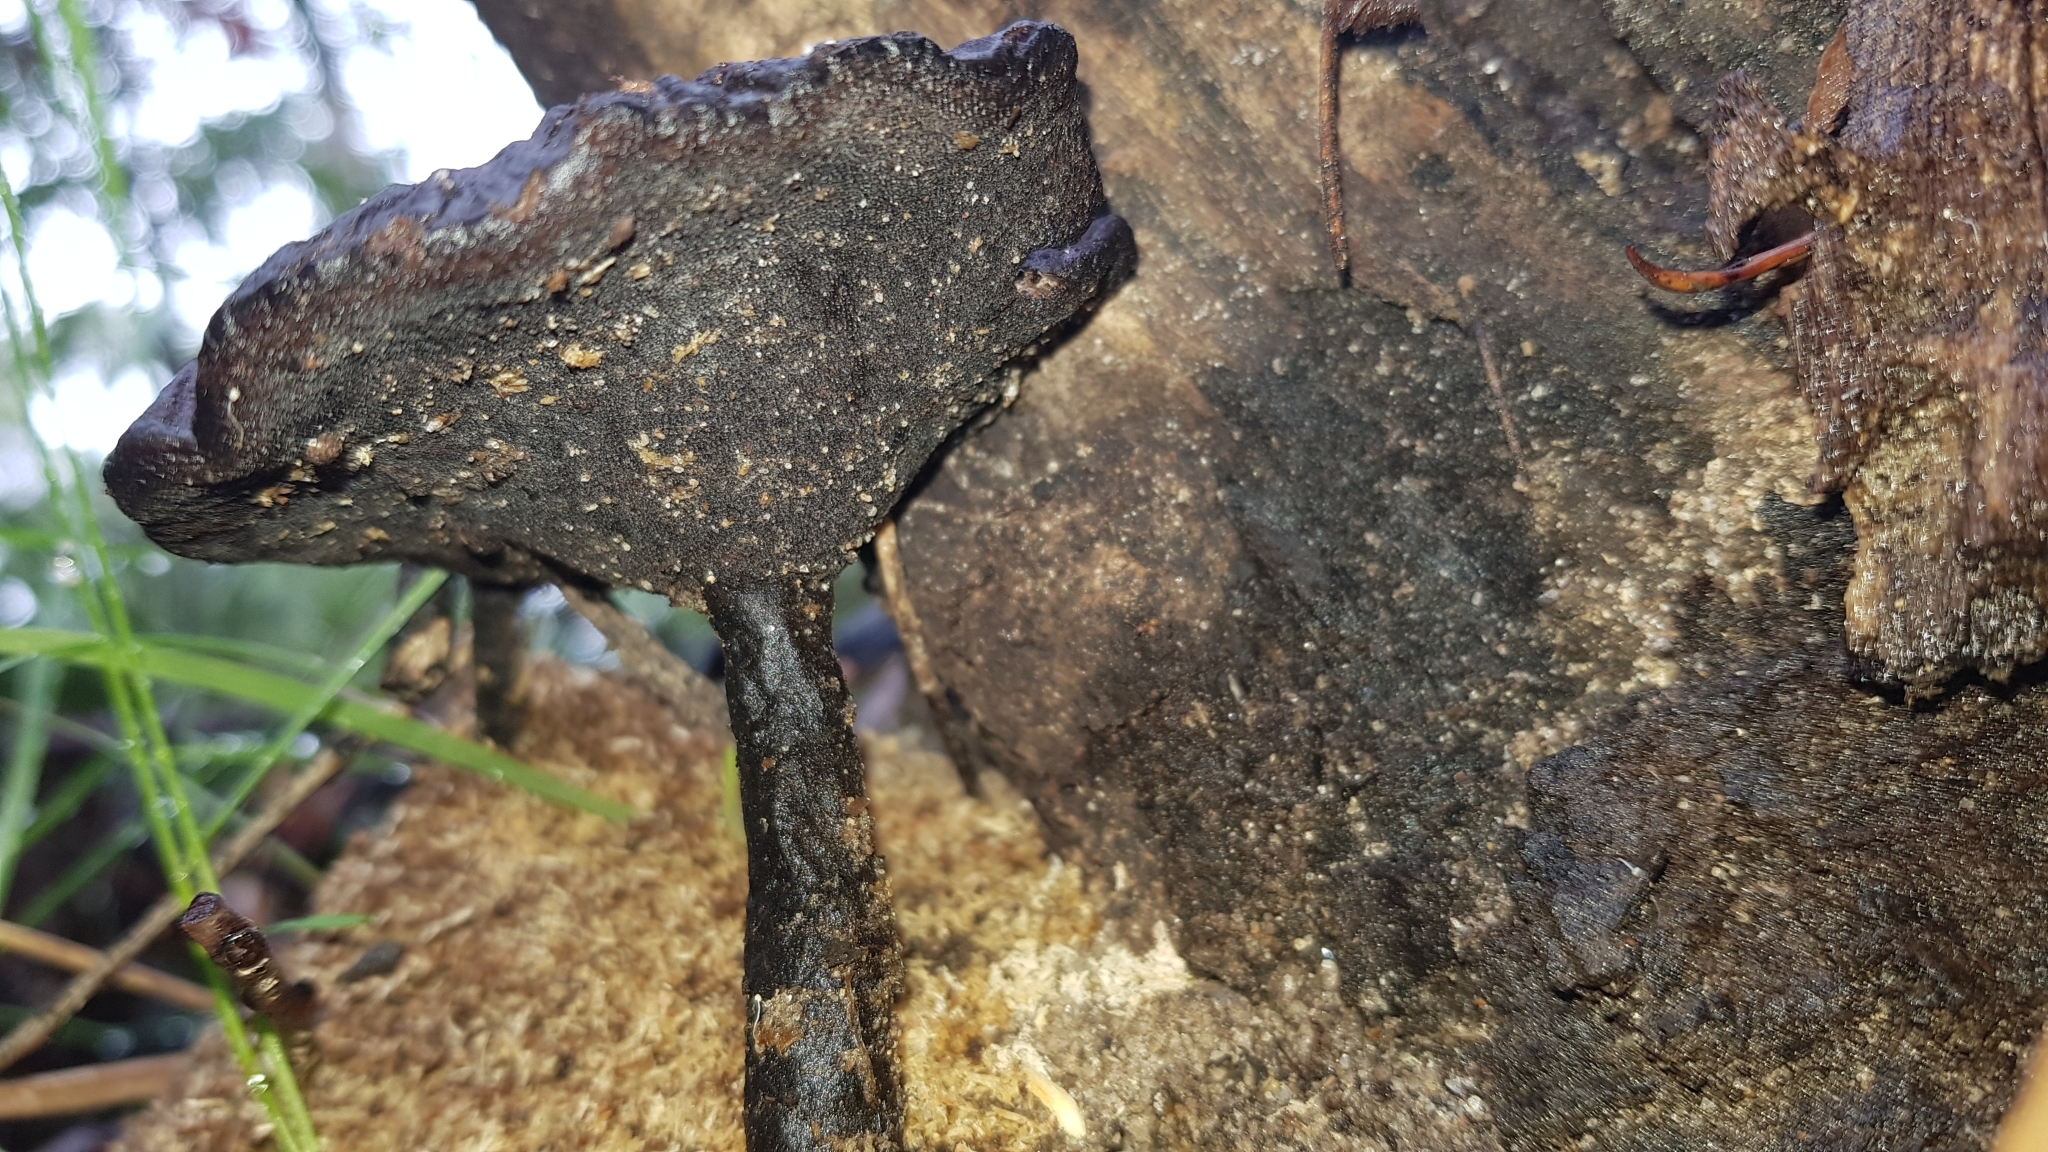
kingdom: Fungi
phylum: Basidiomycota
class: Agaricomycetes
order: Polyporales
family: Ganodermataceae
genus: Sanguinoderma
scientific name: Sanguinoderma rude
